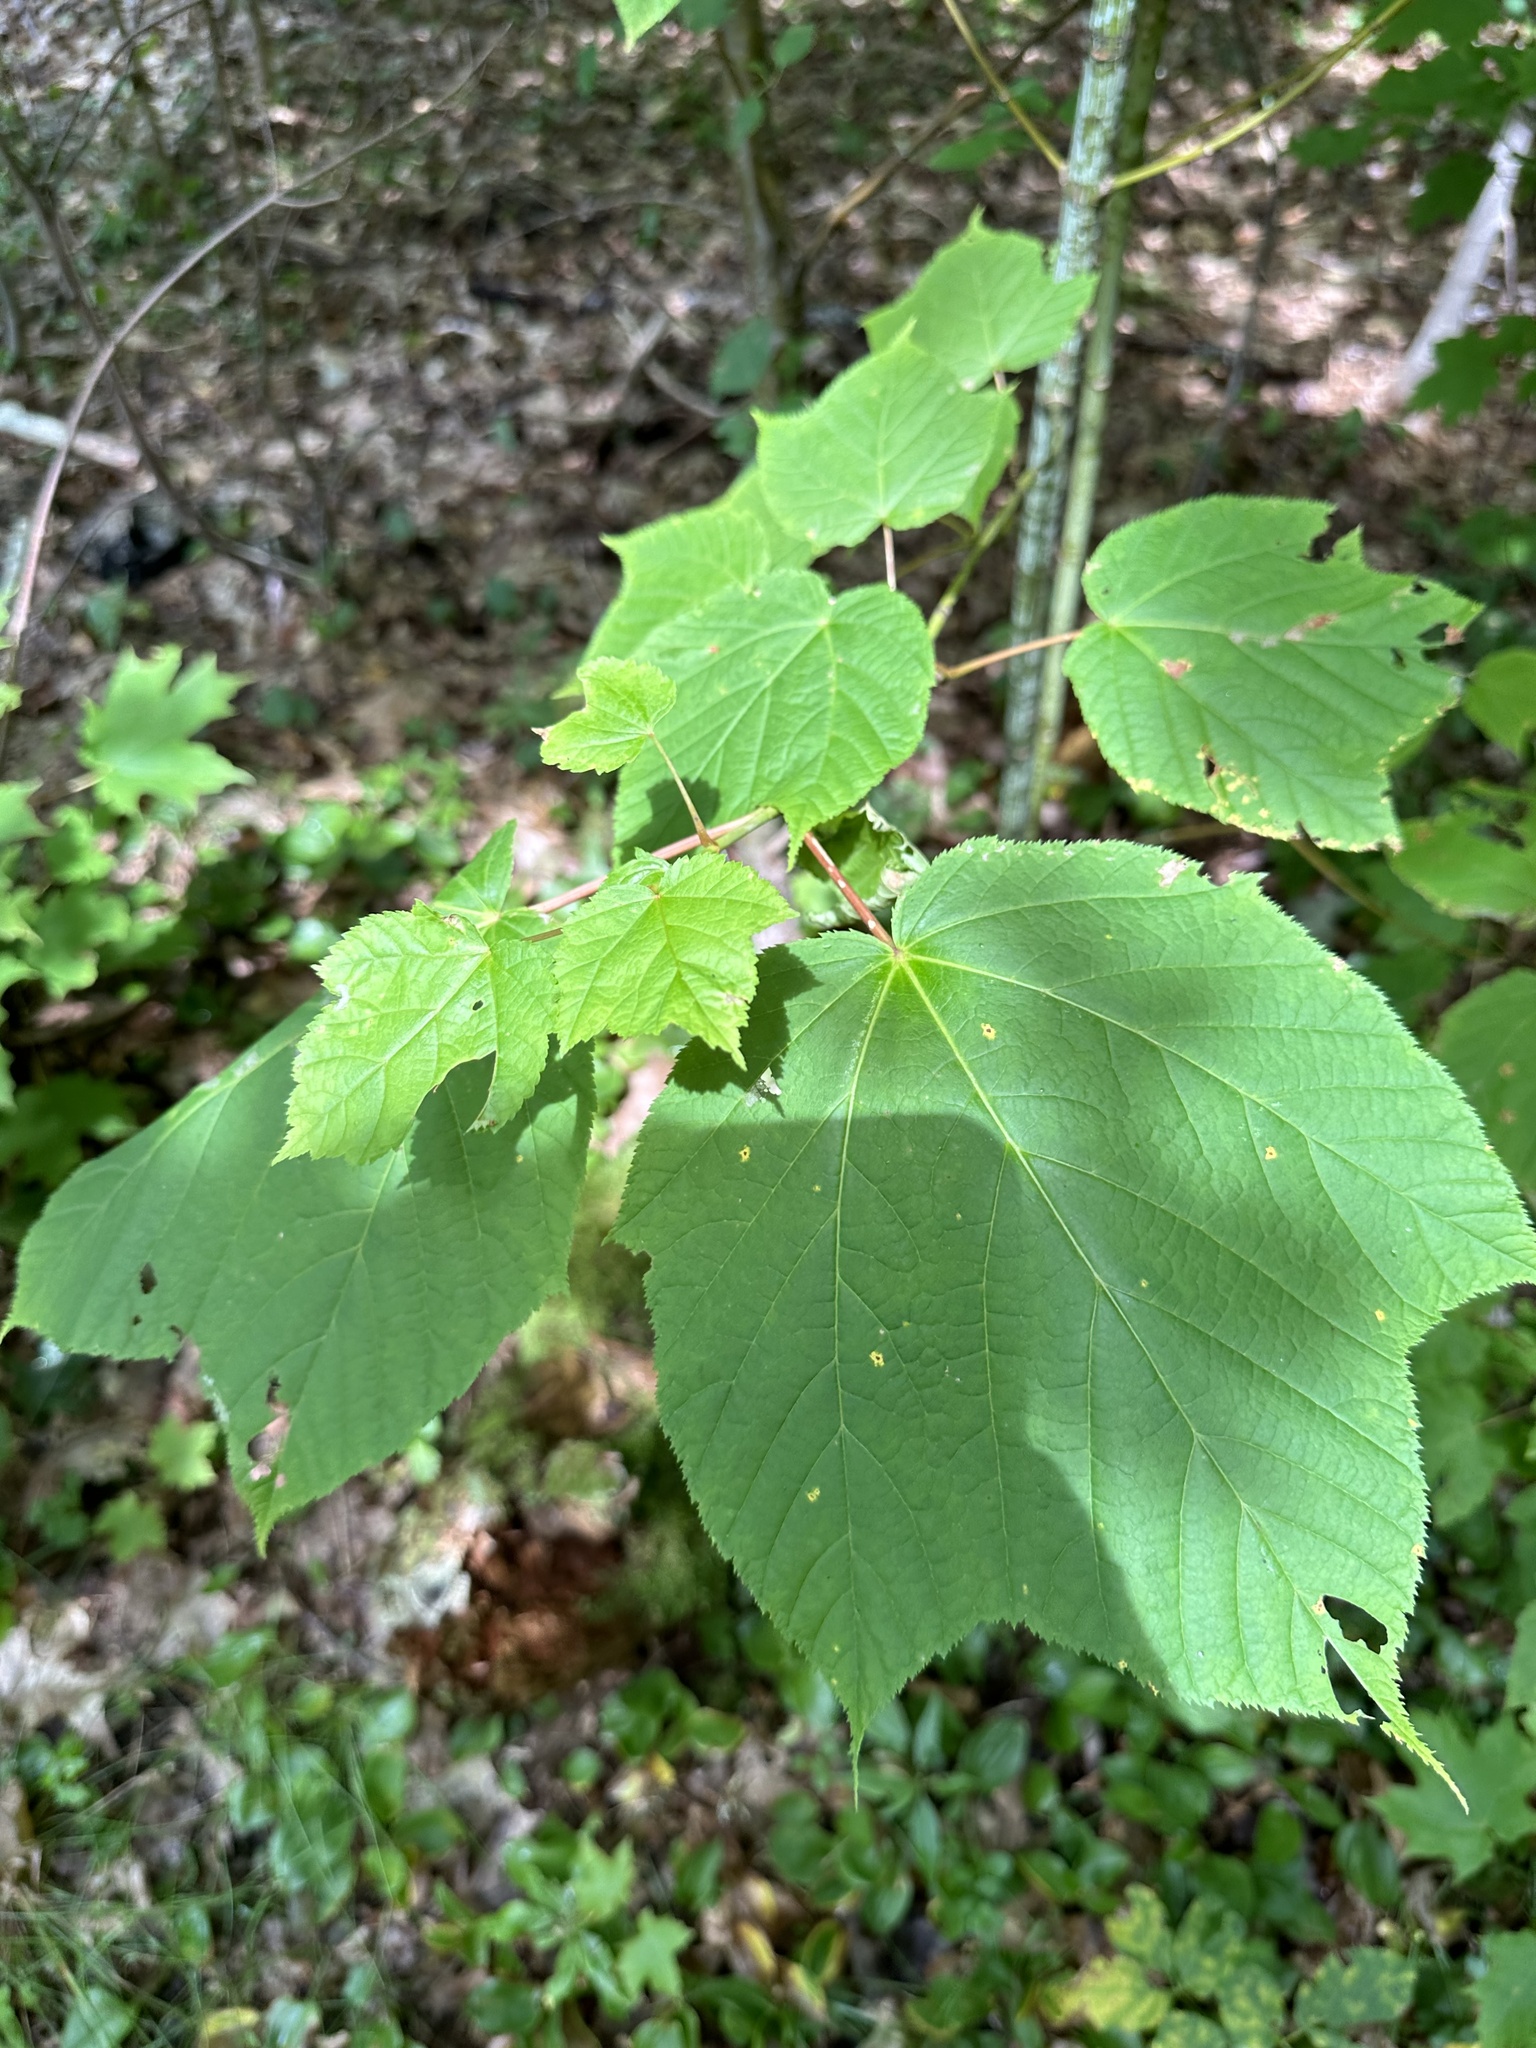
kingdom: Plantae
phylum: Tracheophyta
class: Magnoliopsida
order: Sapindales
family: Sapindaceae
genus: Acer
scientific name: Acer pensylvanicum
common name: Moosewood
